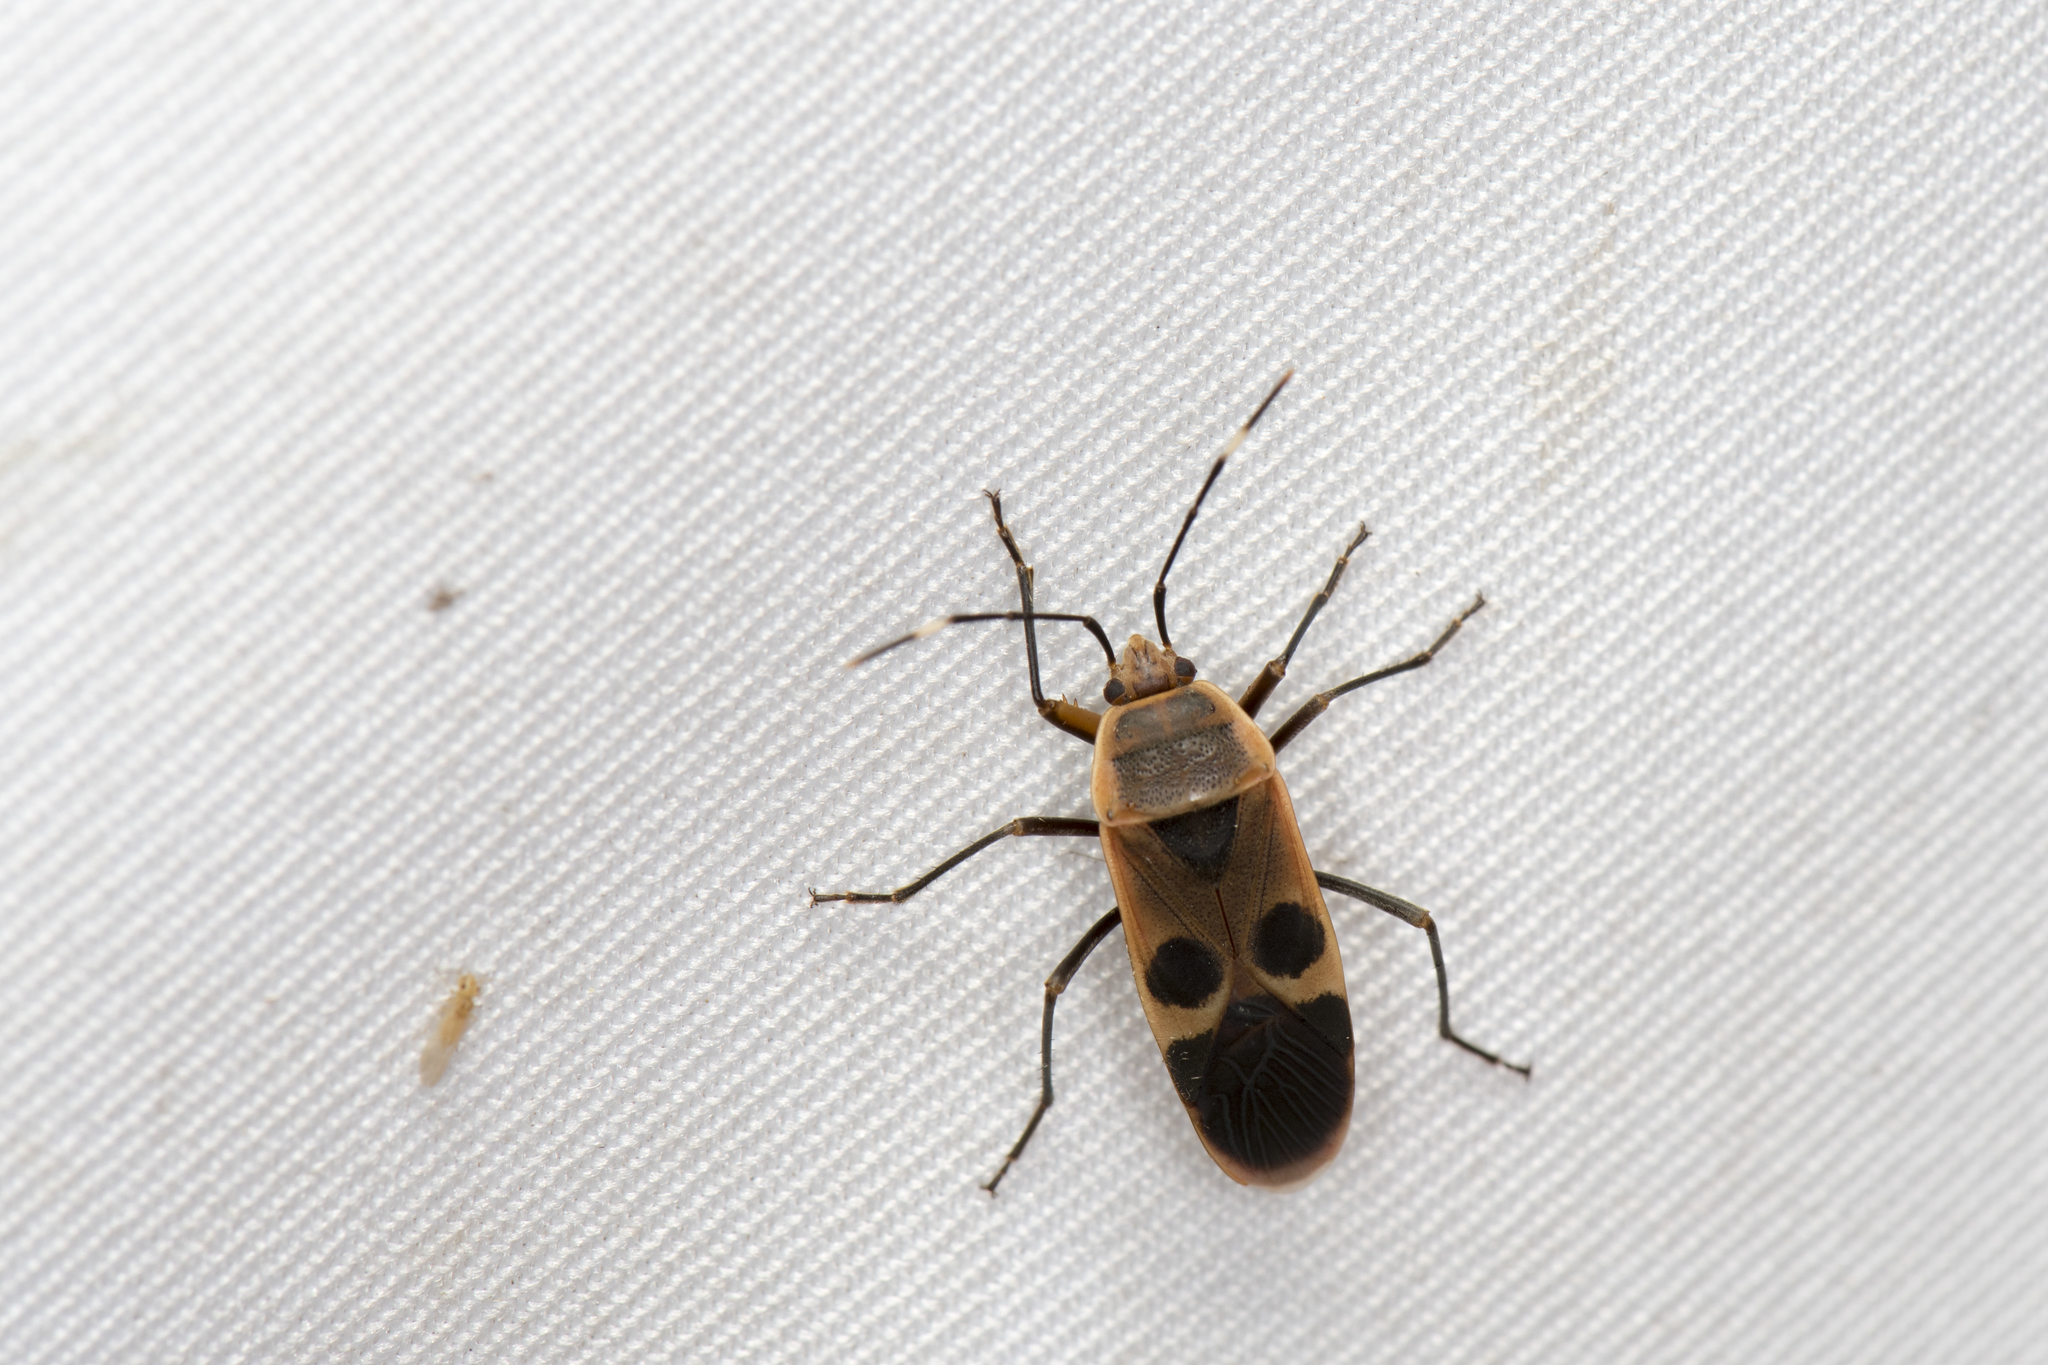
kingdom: Animalia
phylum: Arthropoda
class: Insecta
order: Hemiptera
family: Largidae
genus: Physopelta
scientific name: Physopelta gutta
